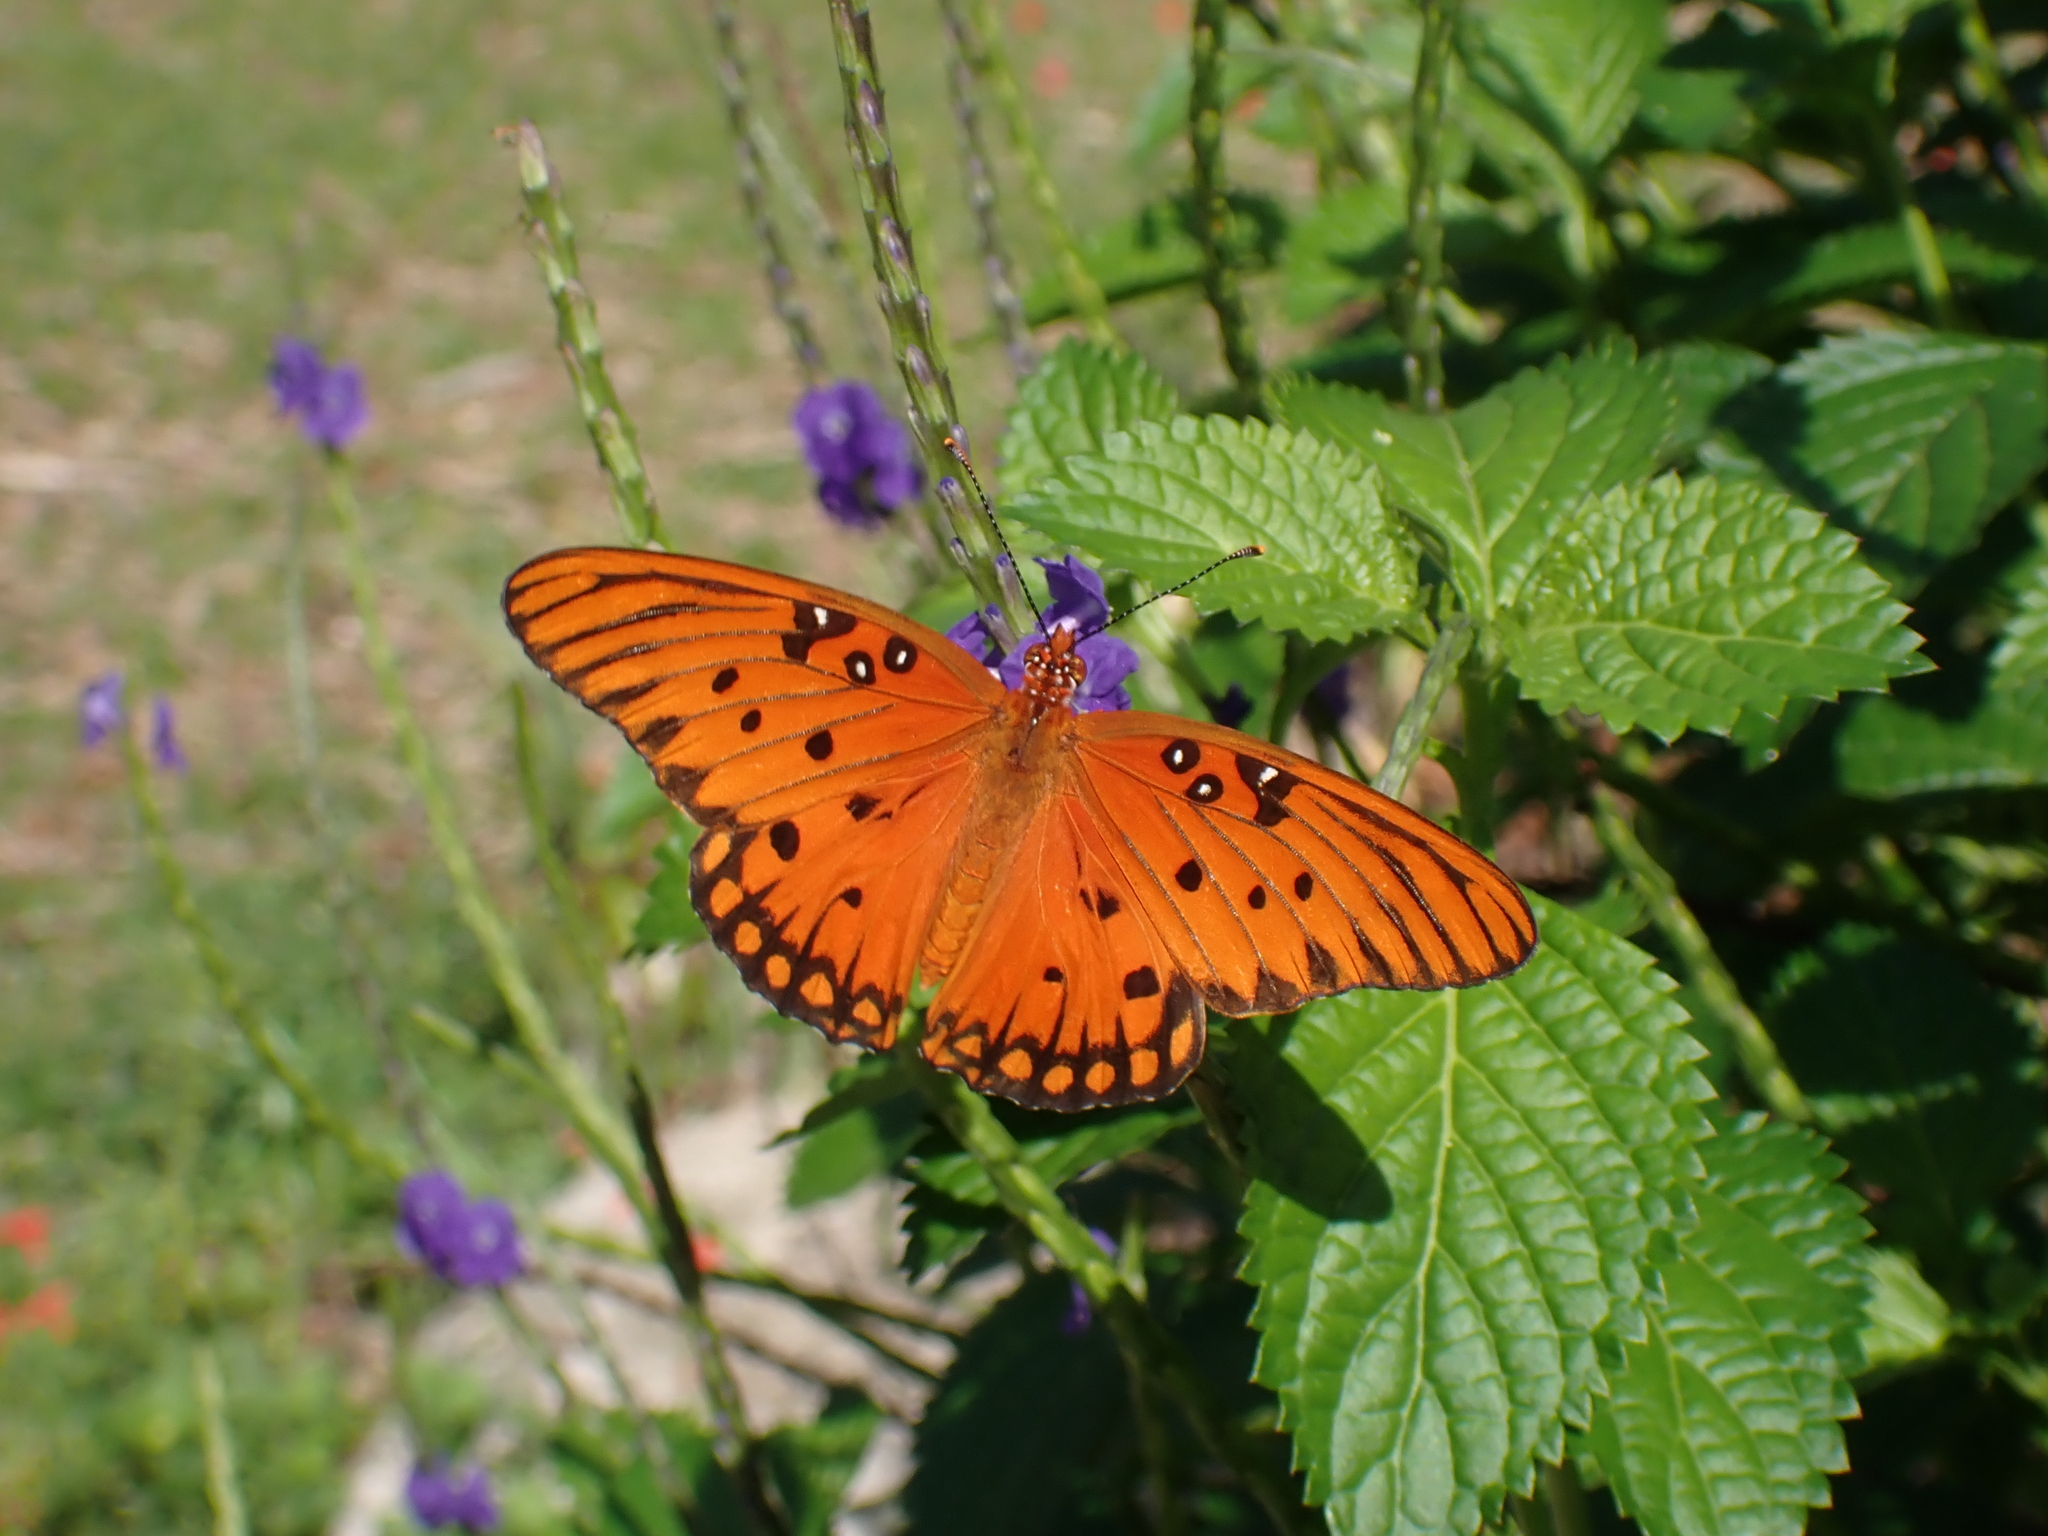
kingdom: Animalia
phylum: Arthropoda
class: Insecta
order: Lepidoptera
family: Nymphalidae
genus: Dione
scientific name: Dione vanillae
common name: Gulf fritillary
